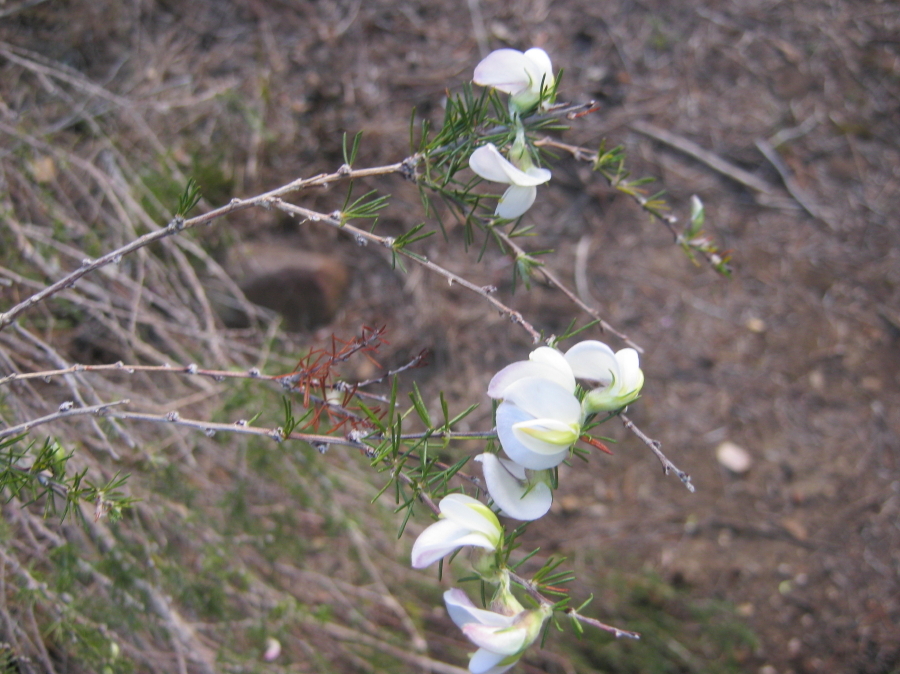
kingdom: Plantae
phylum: Tracheophyta
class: Magnoliopsida
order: Fabales
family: Fabaceae
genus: Aspalathus
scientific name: Aspalathus willdenowiana
